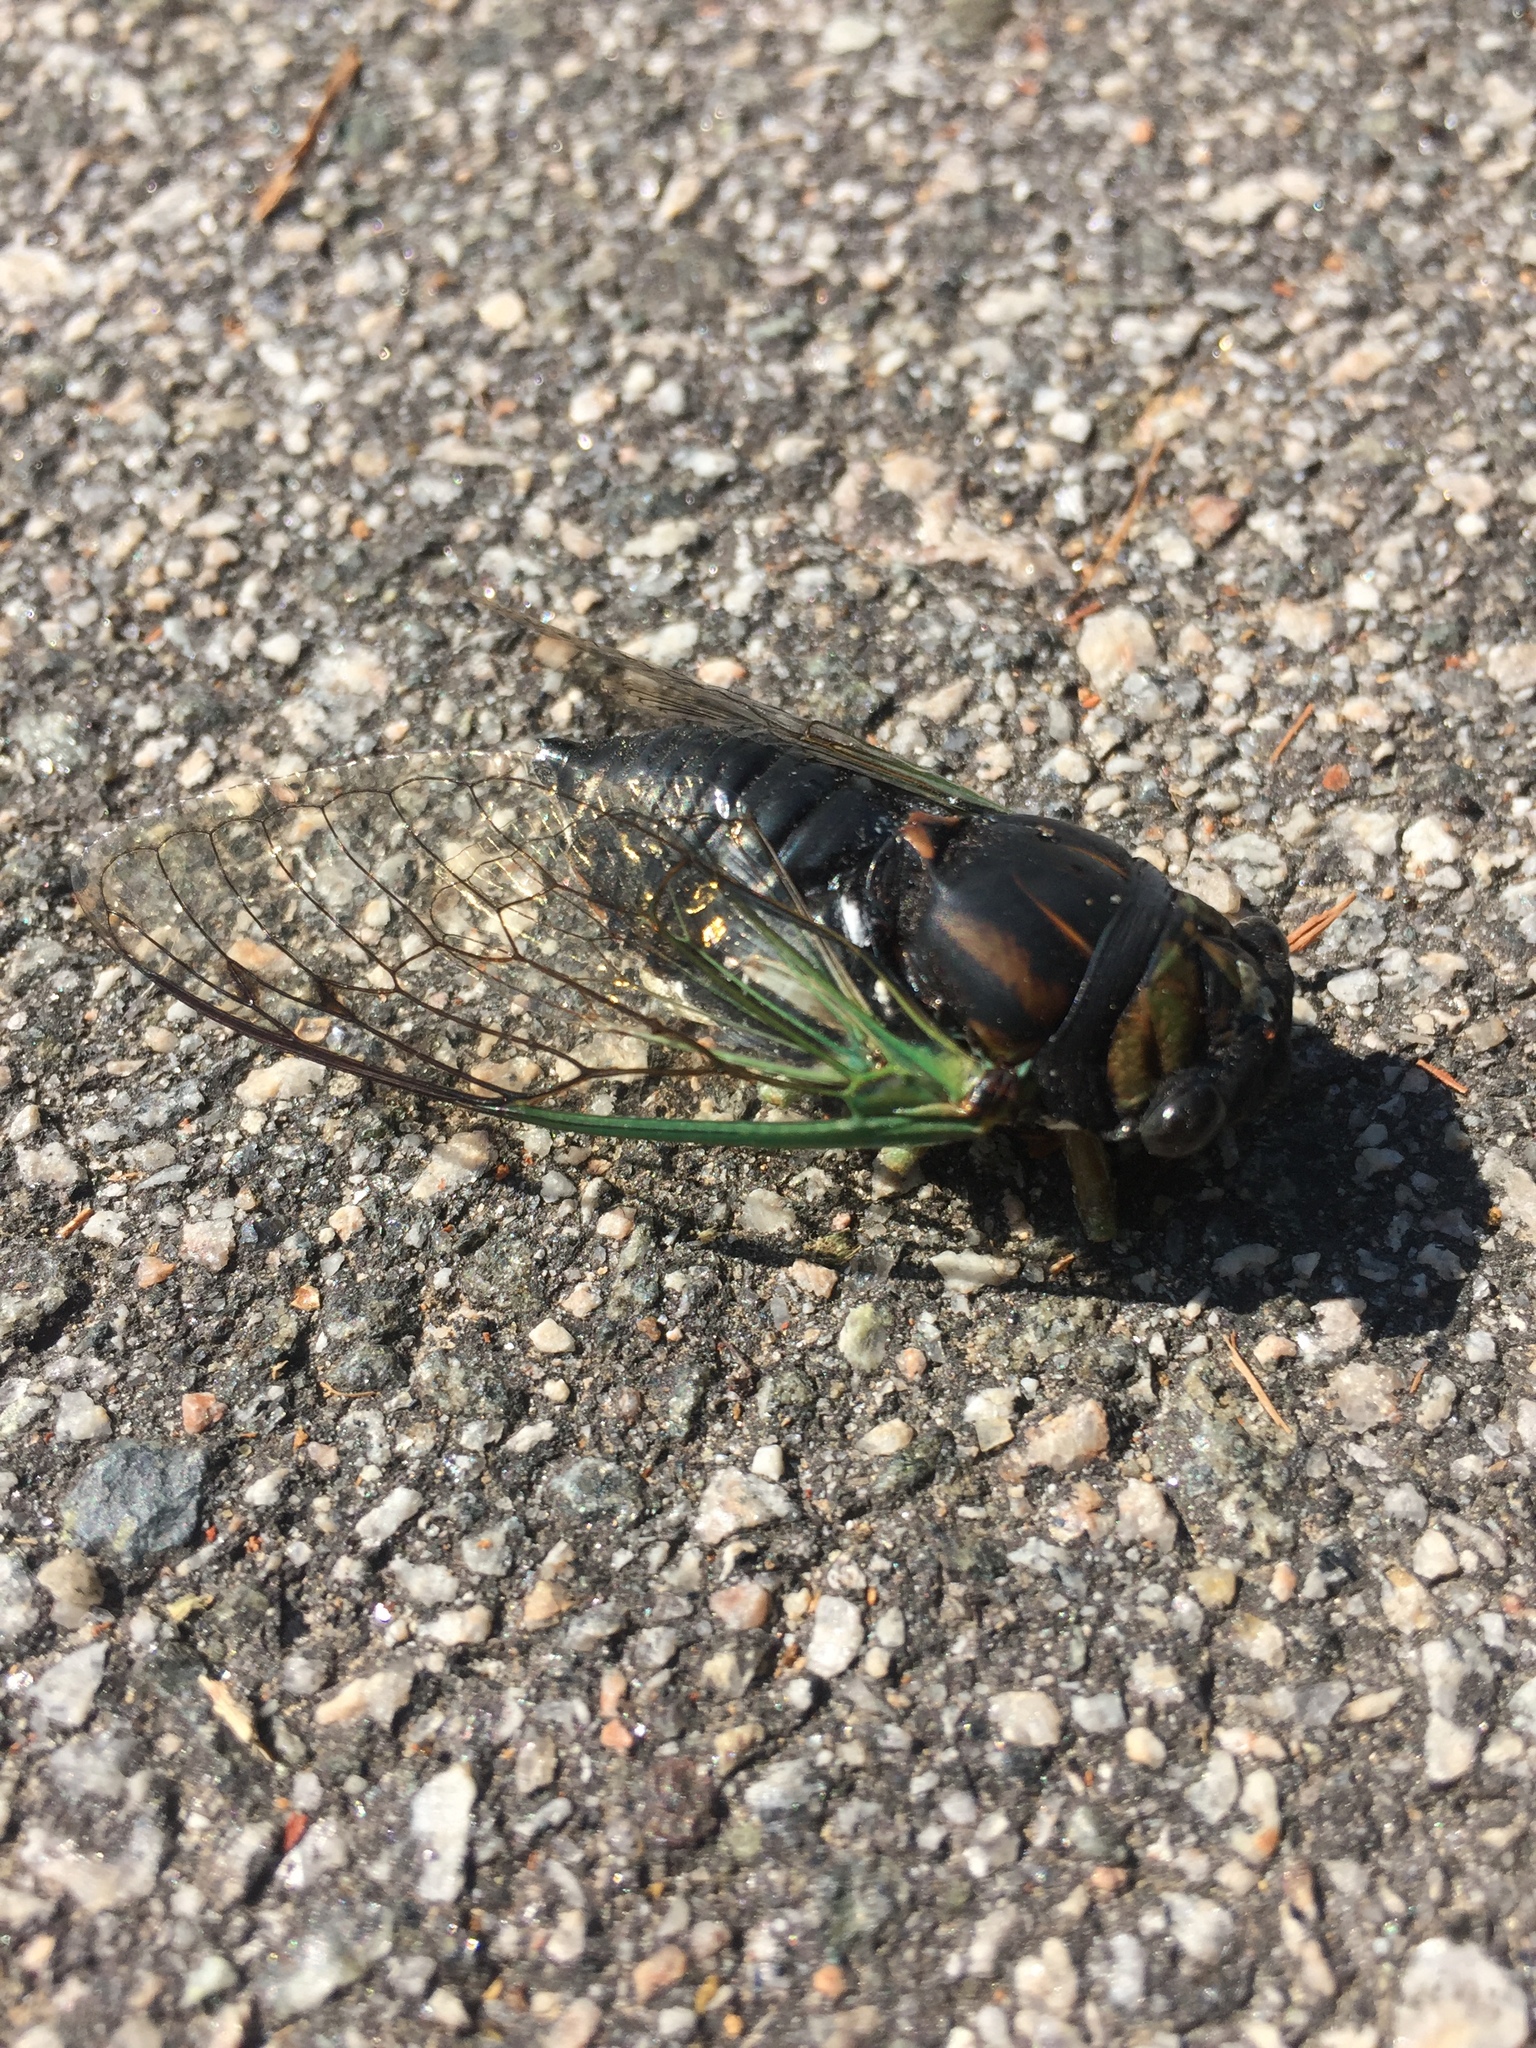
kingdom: Animalia
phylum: Arthropoda
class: Insecta
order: Hemiptera
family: Cicadidae
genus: Neotibicen
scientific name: Neotibicen tibicen
